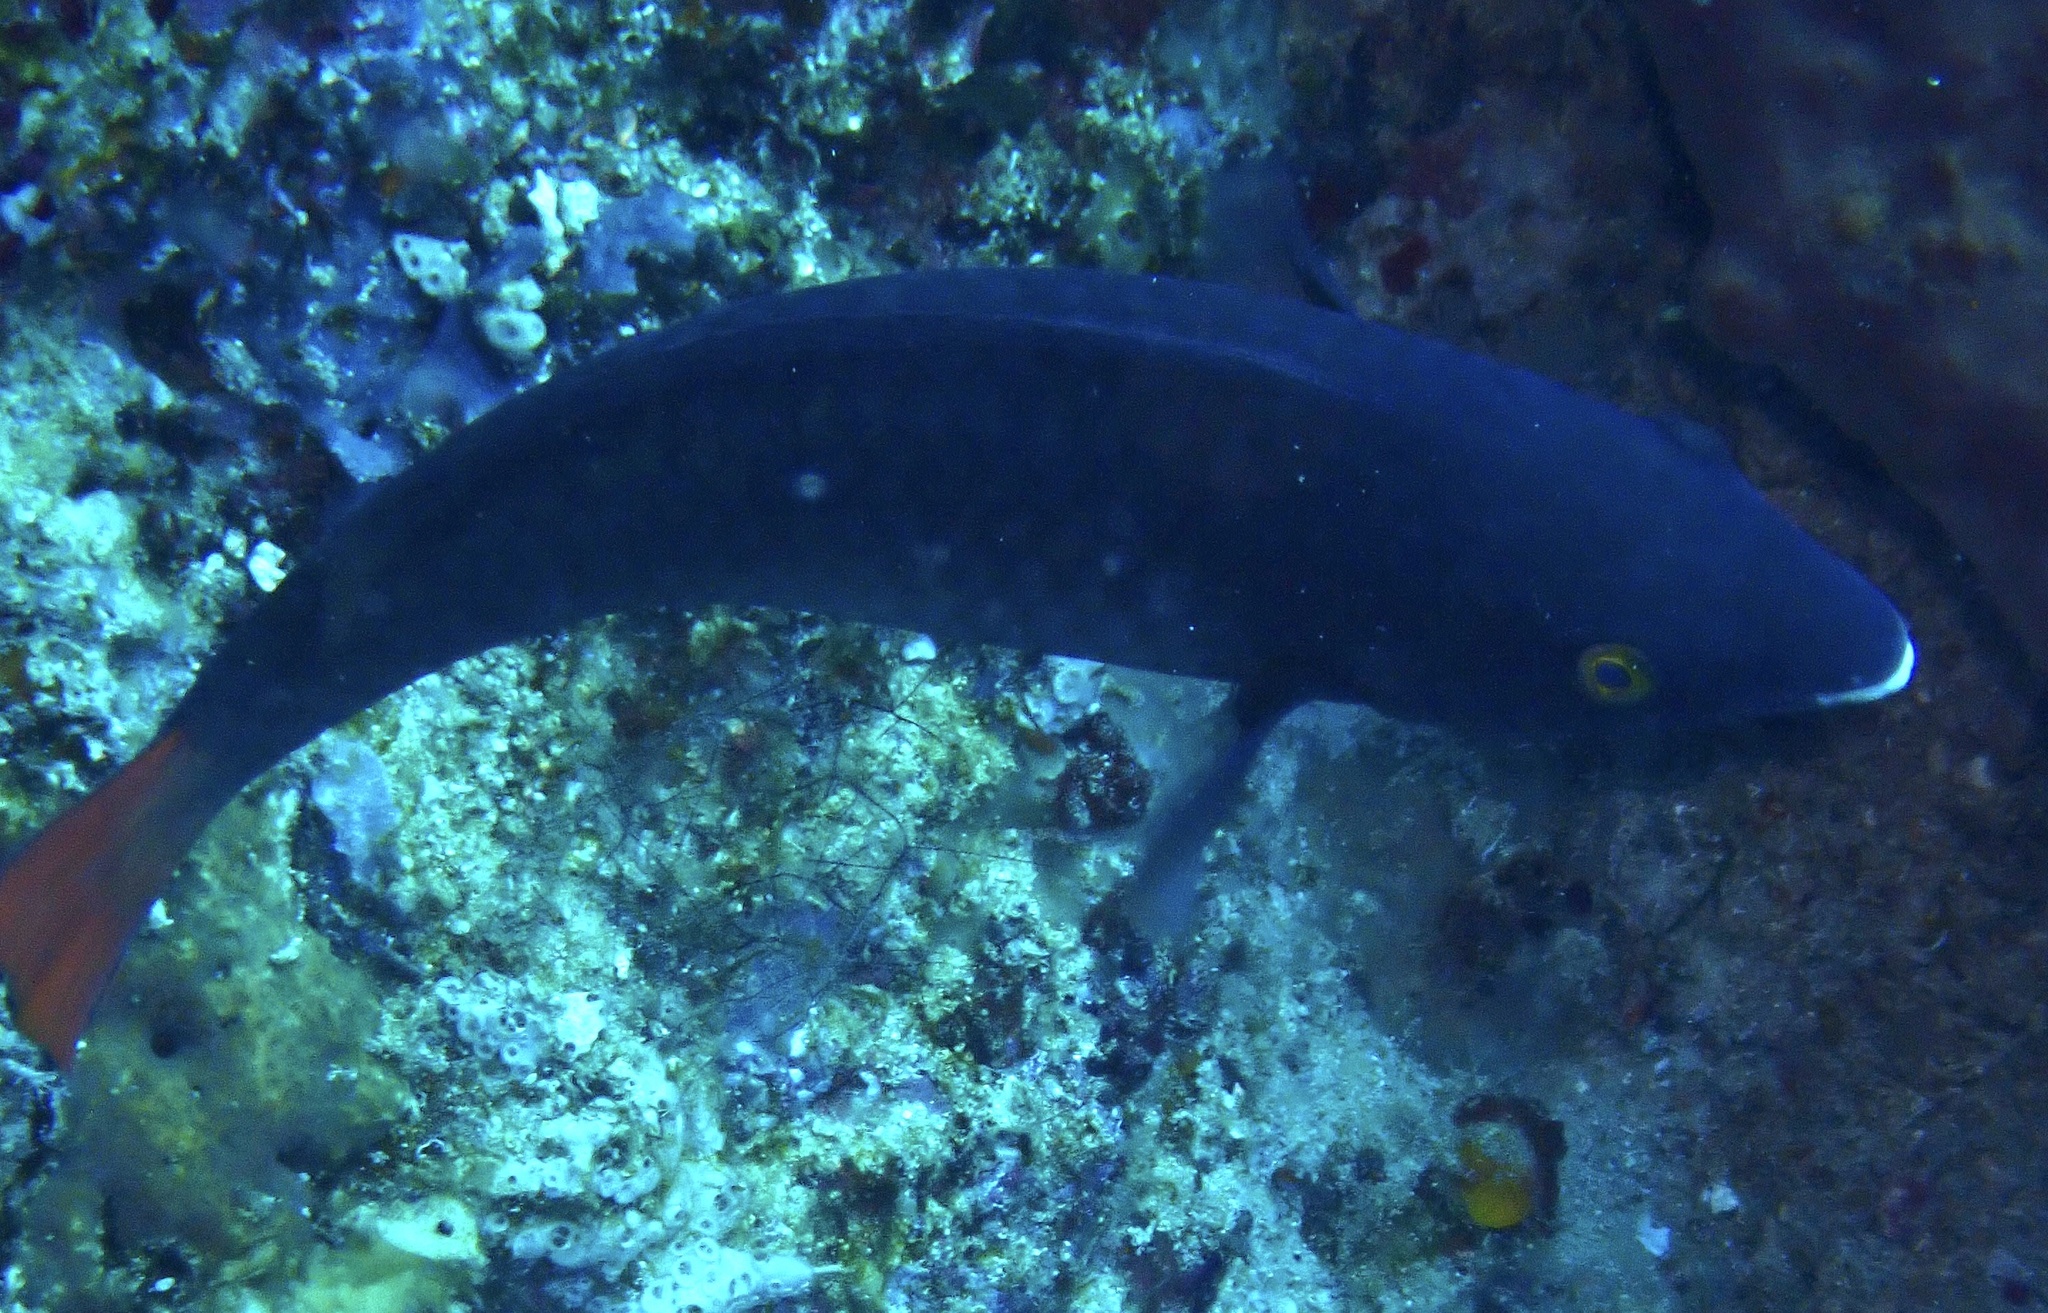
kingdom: Animalia
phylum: Chordata
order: Perciformes
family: Scaridae
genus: Scarus
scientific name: Scarus tricolor
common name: Tricolour parrotfish
